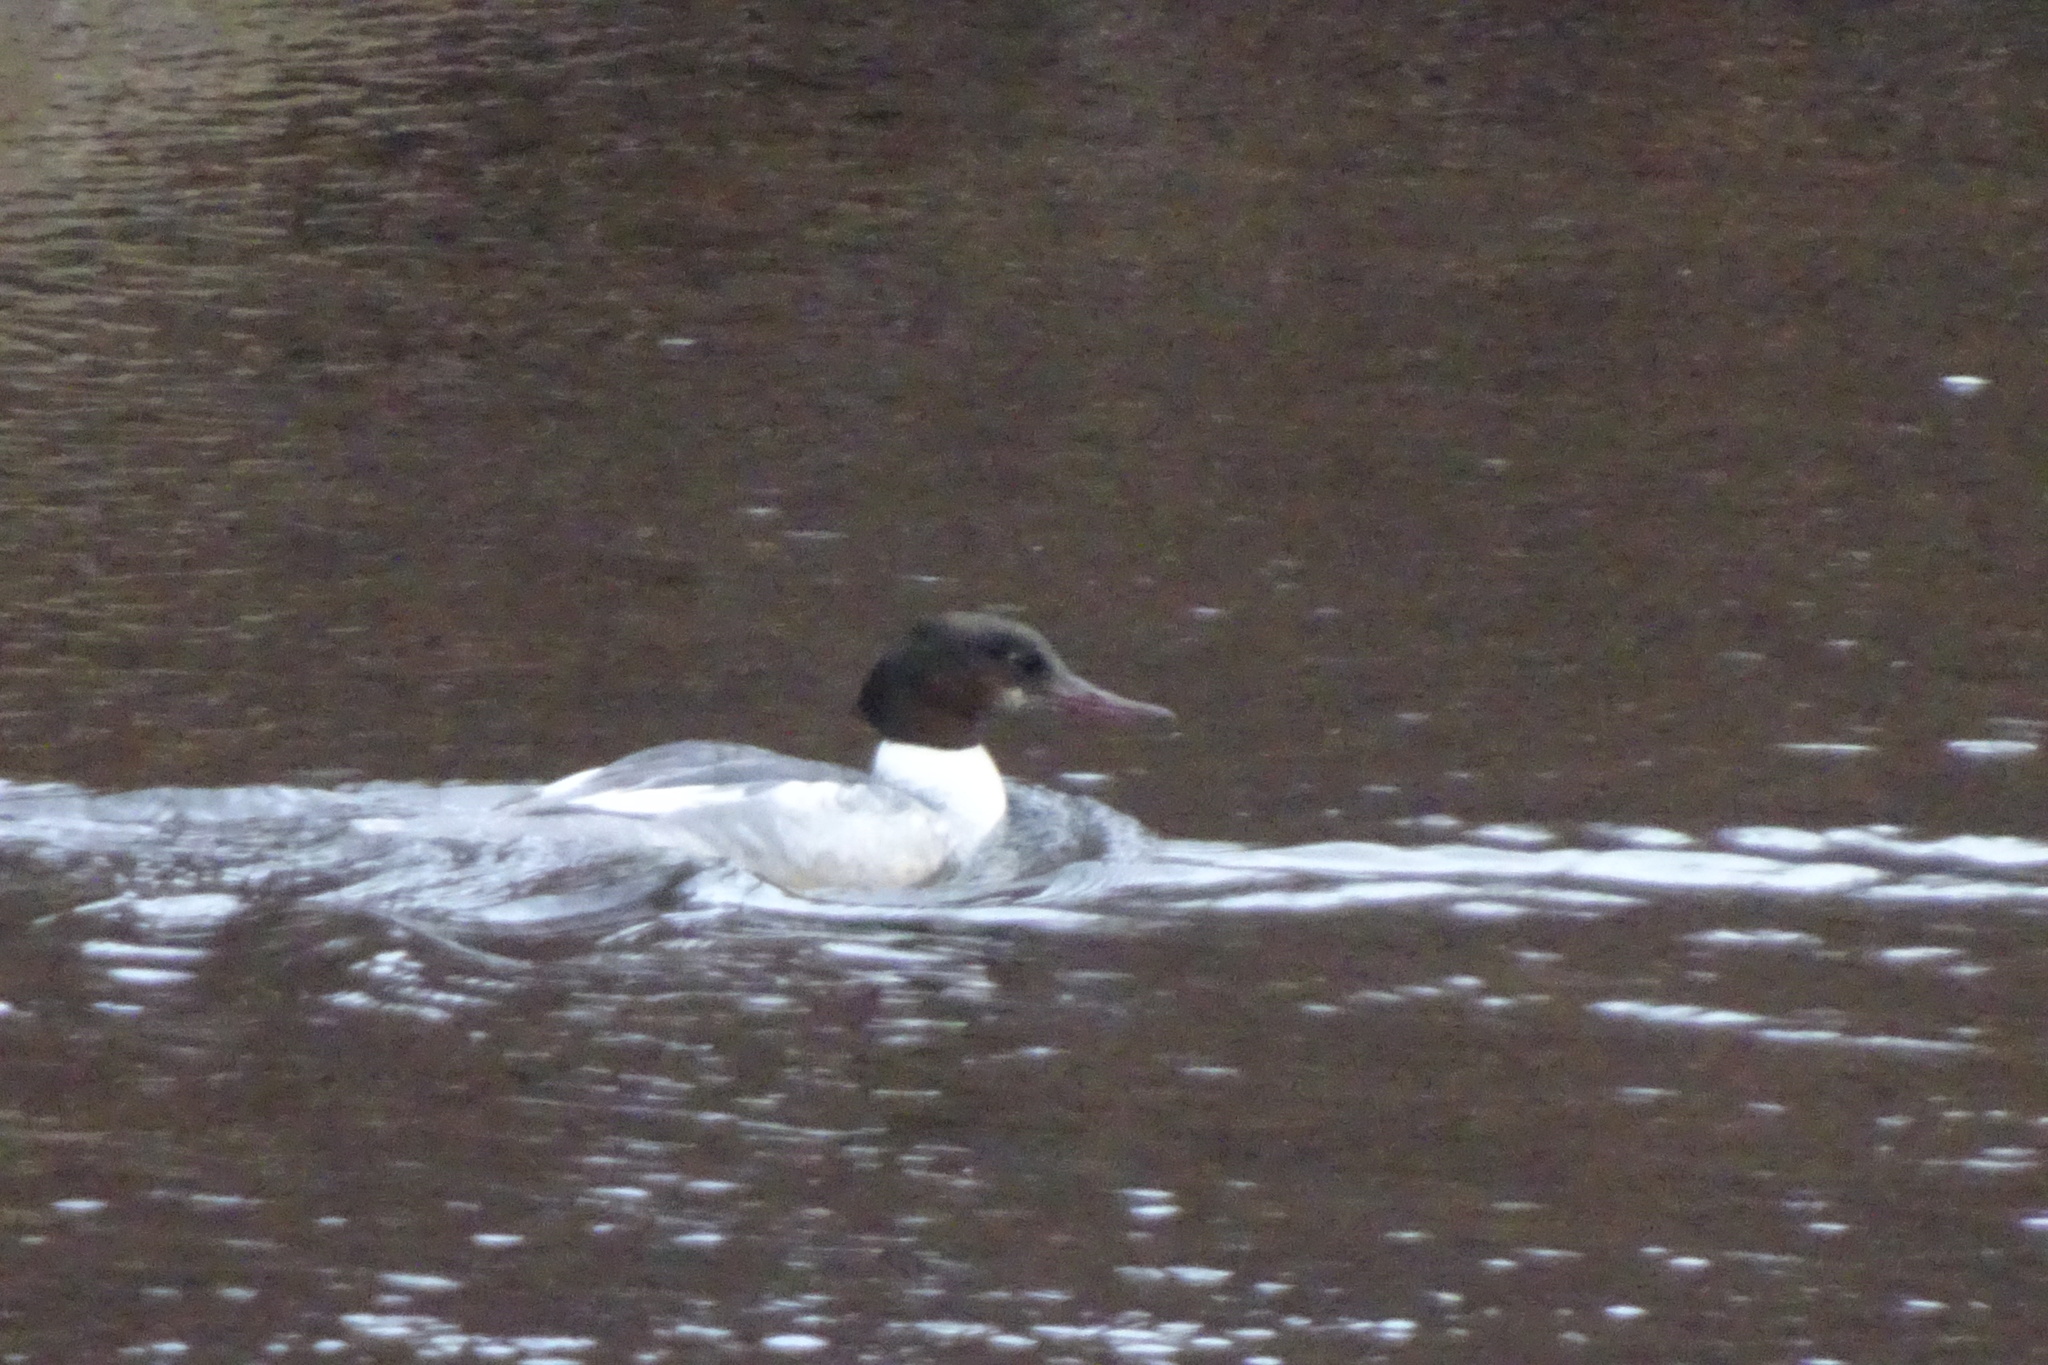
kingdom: Animalia
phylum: Chordata
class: Aves
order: Anseriformes
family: Anatidae
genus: Mergus
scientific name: Mergus merganser
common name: Common merganser
